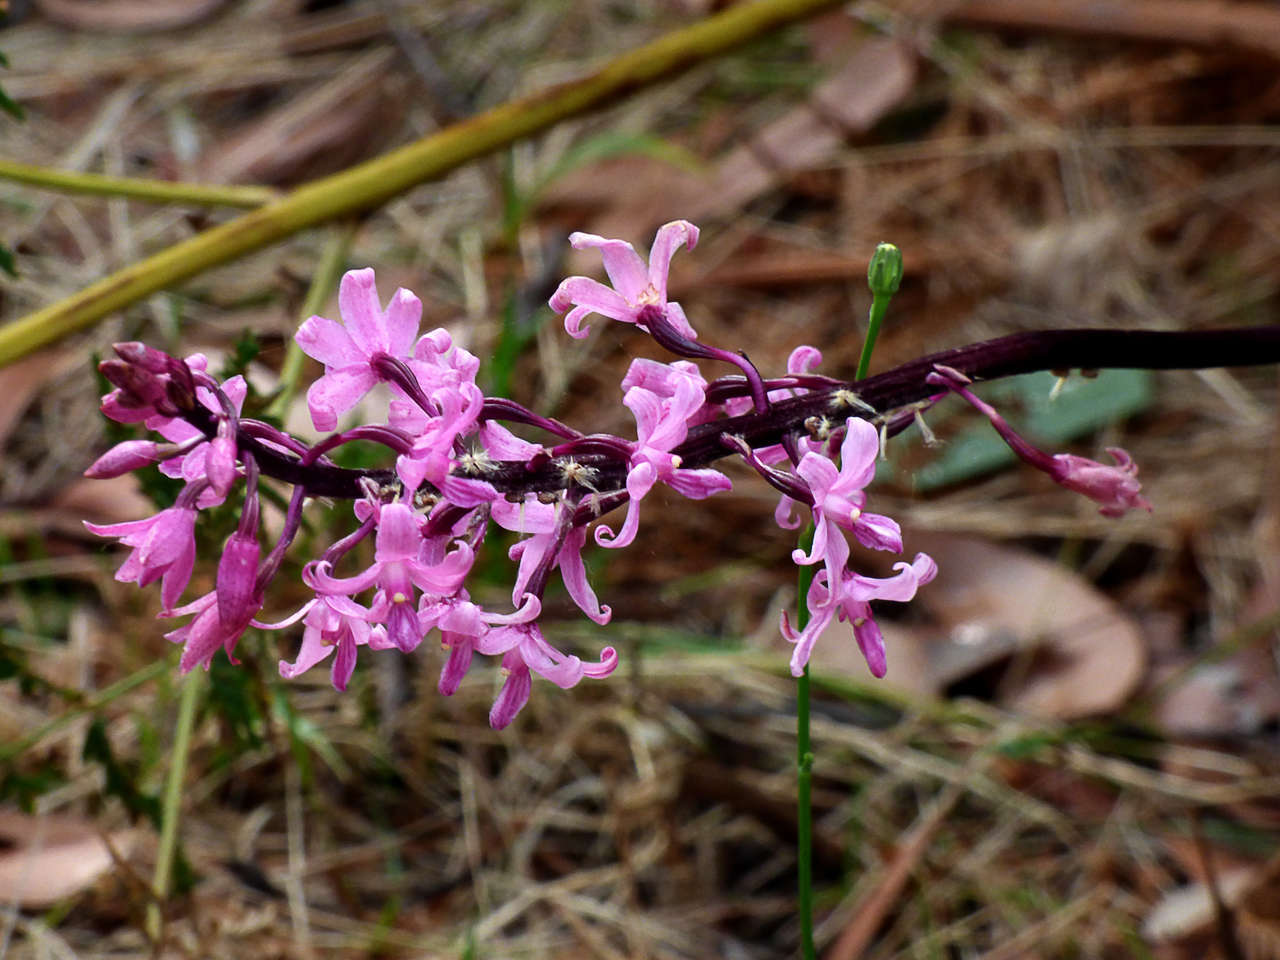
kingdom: Plantae
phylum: Tracheophyta
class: Liliopsida
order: Asparagales
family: Orchidaceae
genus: Dipodium
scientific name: Dipodium roseum
